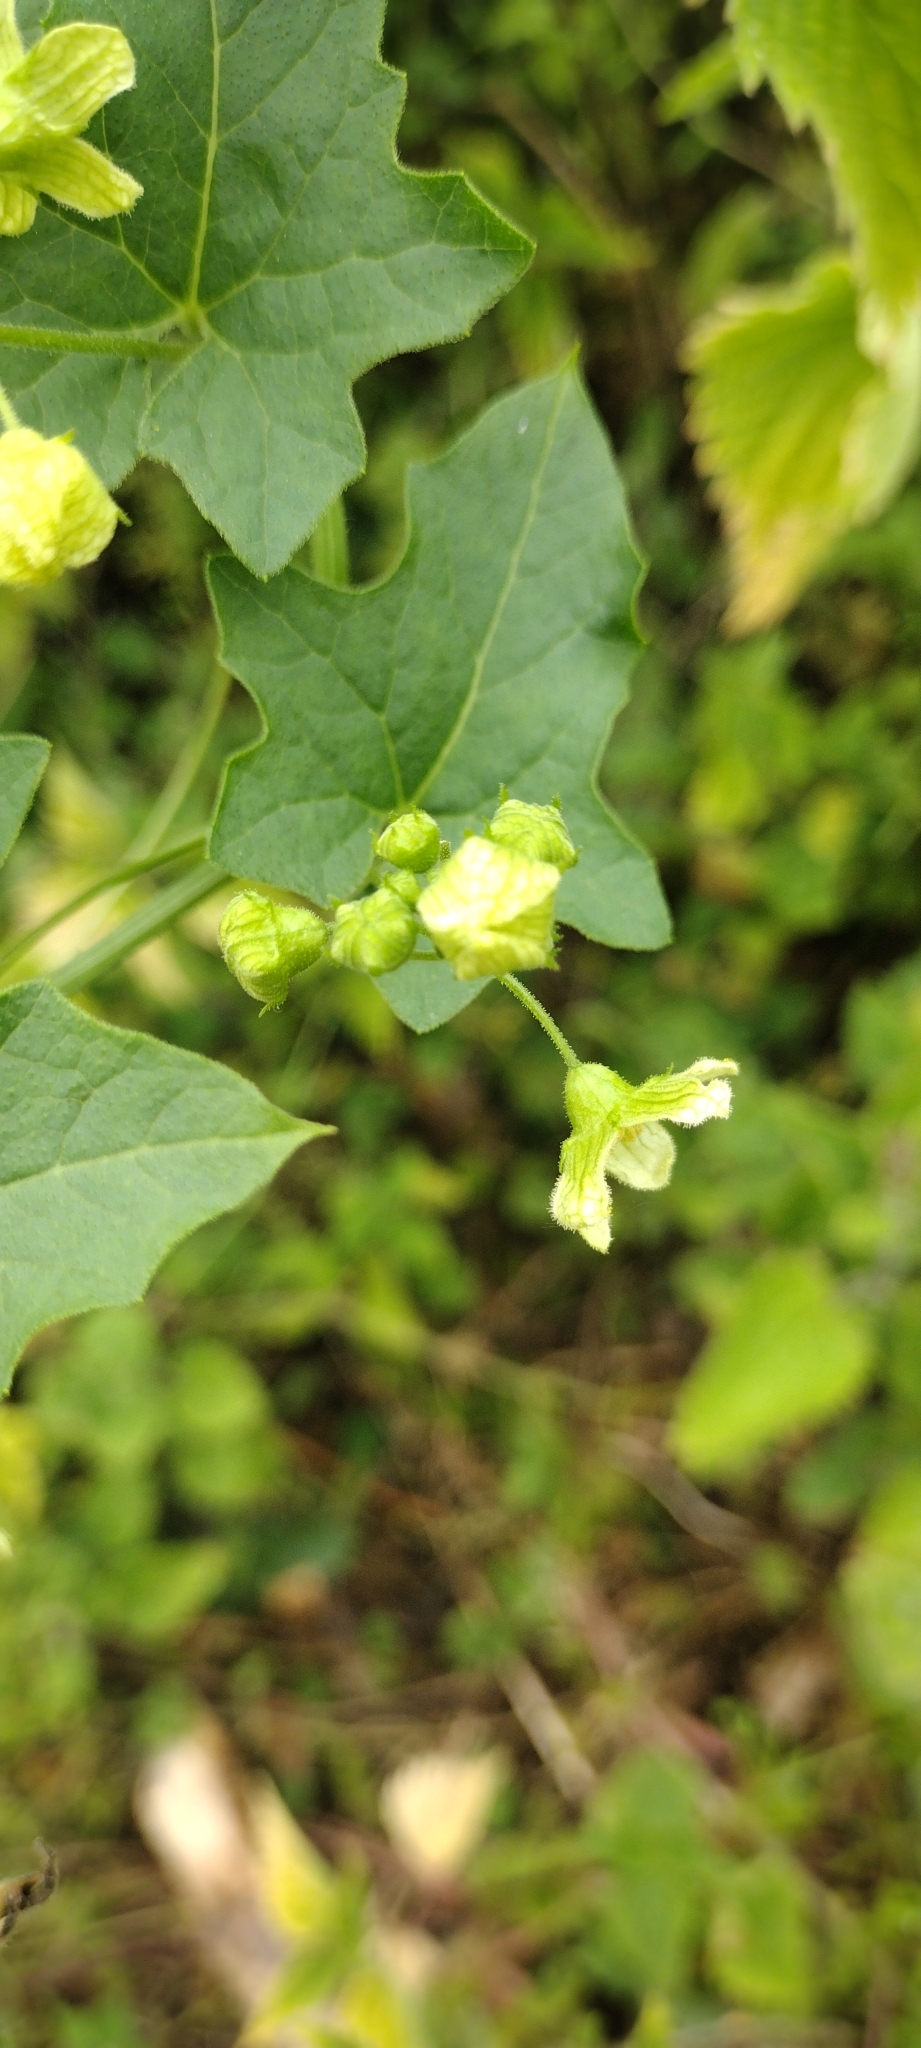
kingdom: Plantae
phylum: Tracheophyta
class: Magnoliopsida
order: Cucurbitales
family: Cucurbitaceae
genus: Bryonia
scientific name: Bryonia cretica
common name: Cretan bryony
